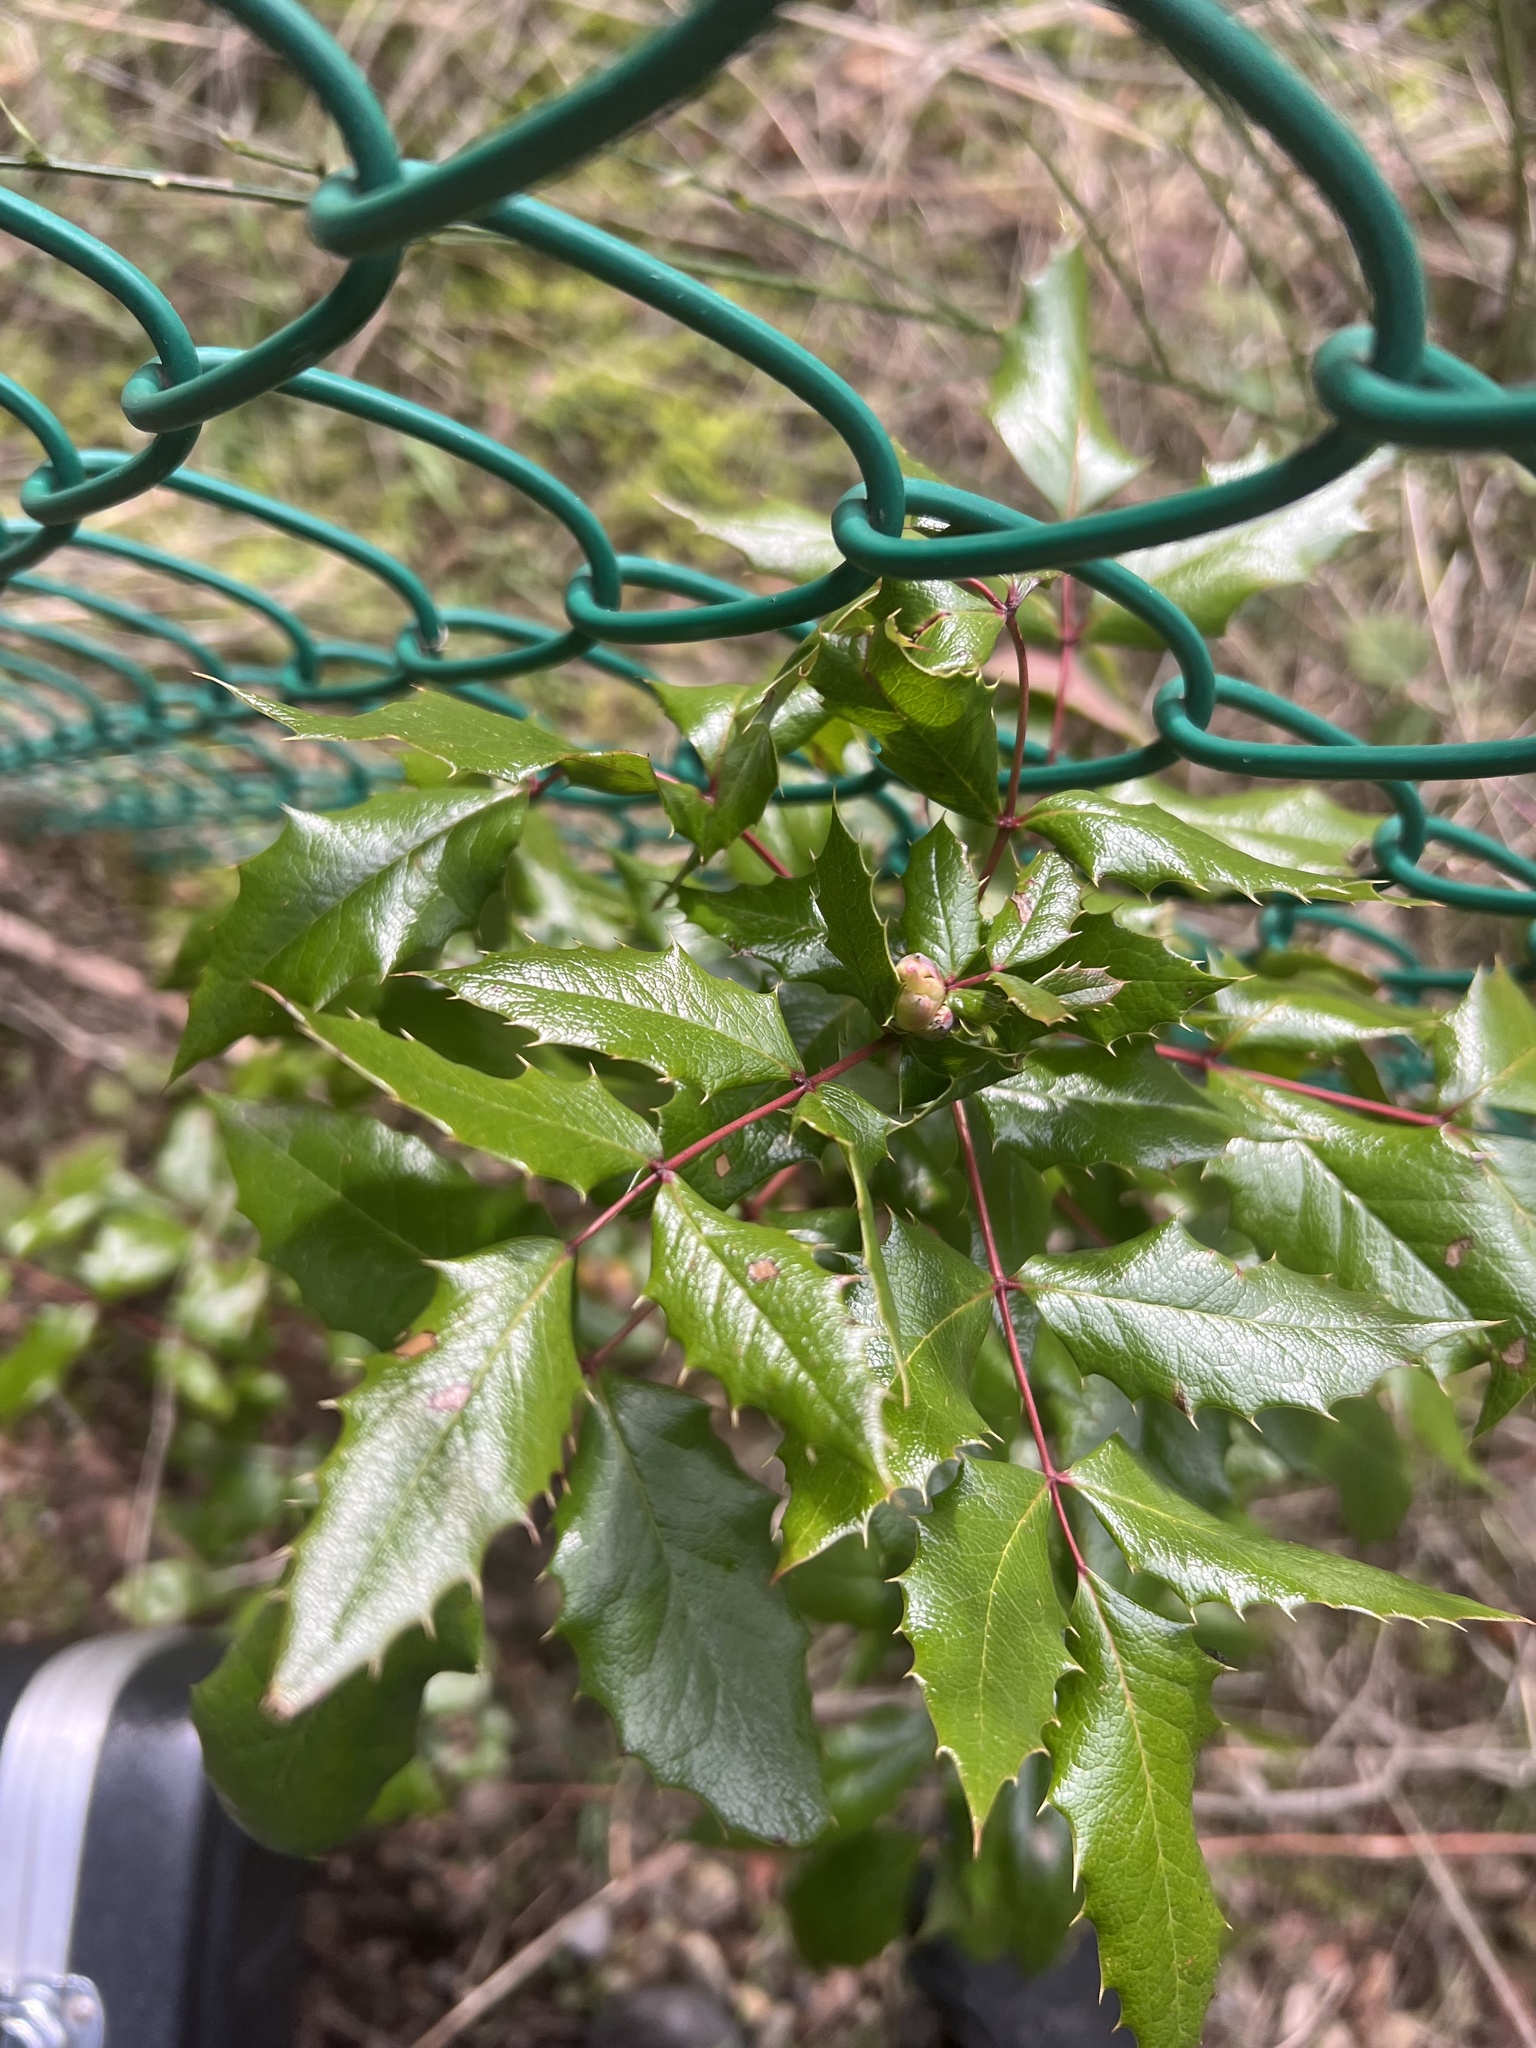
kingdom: Plantae
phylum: Tracheophyta
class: Magnoliopsida
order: Ranunculales
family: Berberidaceae
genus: Mahonia
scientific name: Mahonia aquifolium
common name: Oregon-grape
